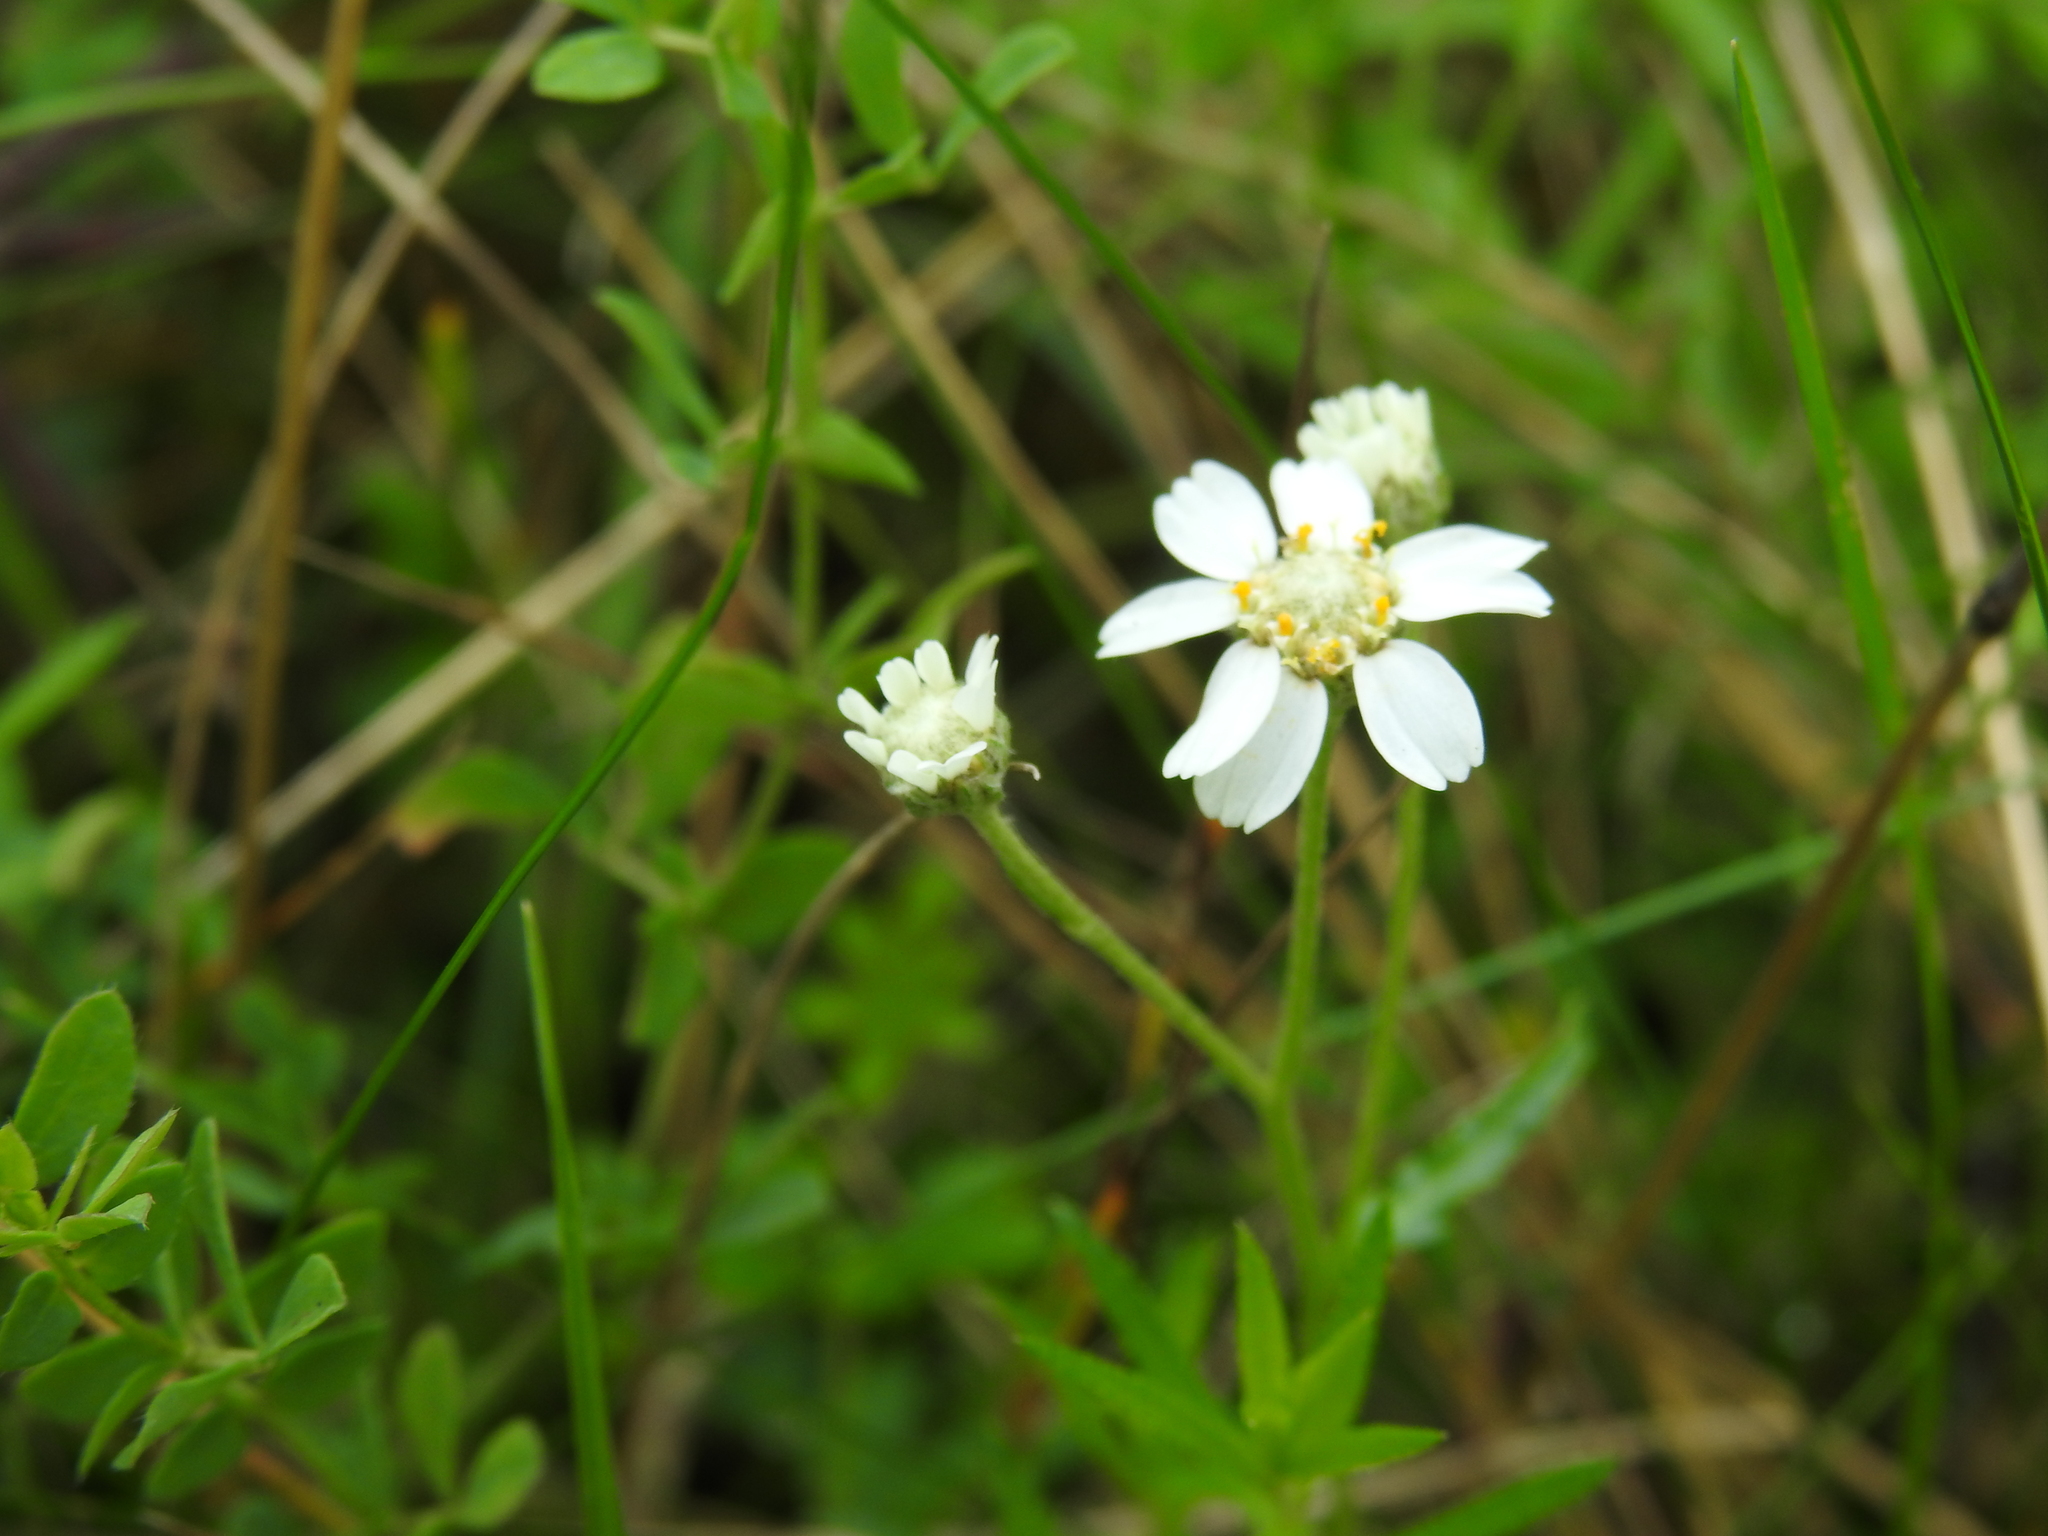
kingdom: Plantae
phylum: Tracheophyta
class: Magnoliopsida
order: Asterales
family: Asteraceae
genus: Achillea
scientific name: Achillea ptarmica
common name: Sneezeweed
